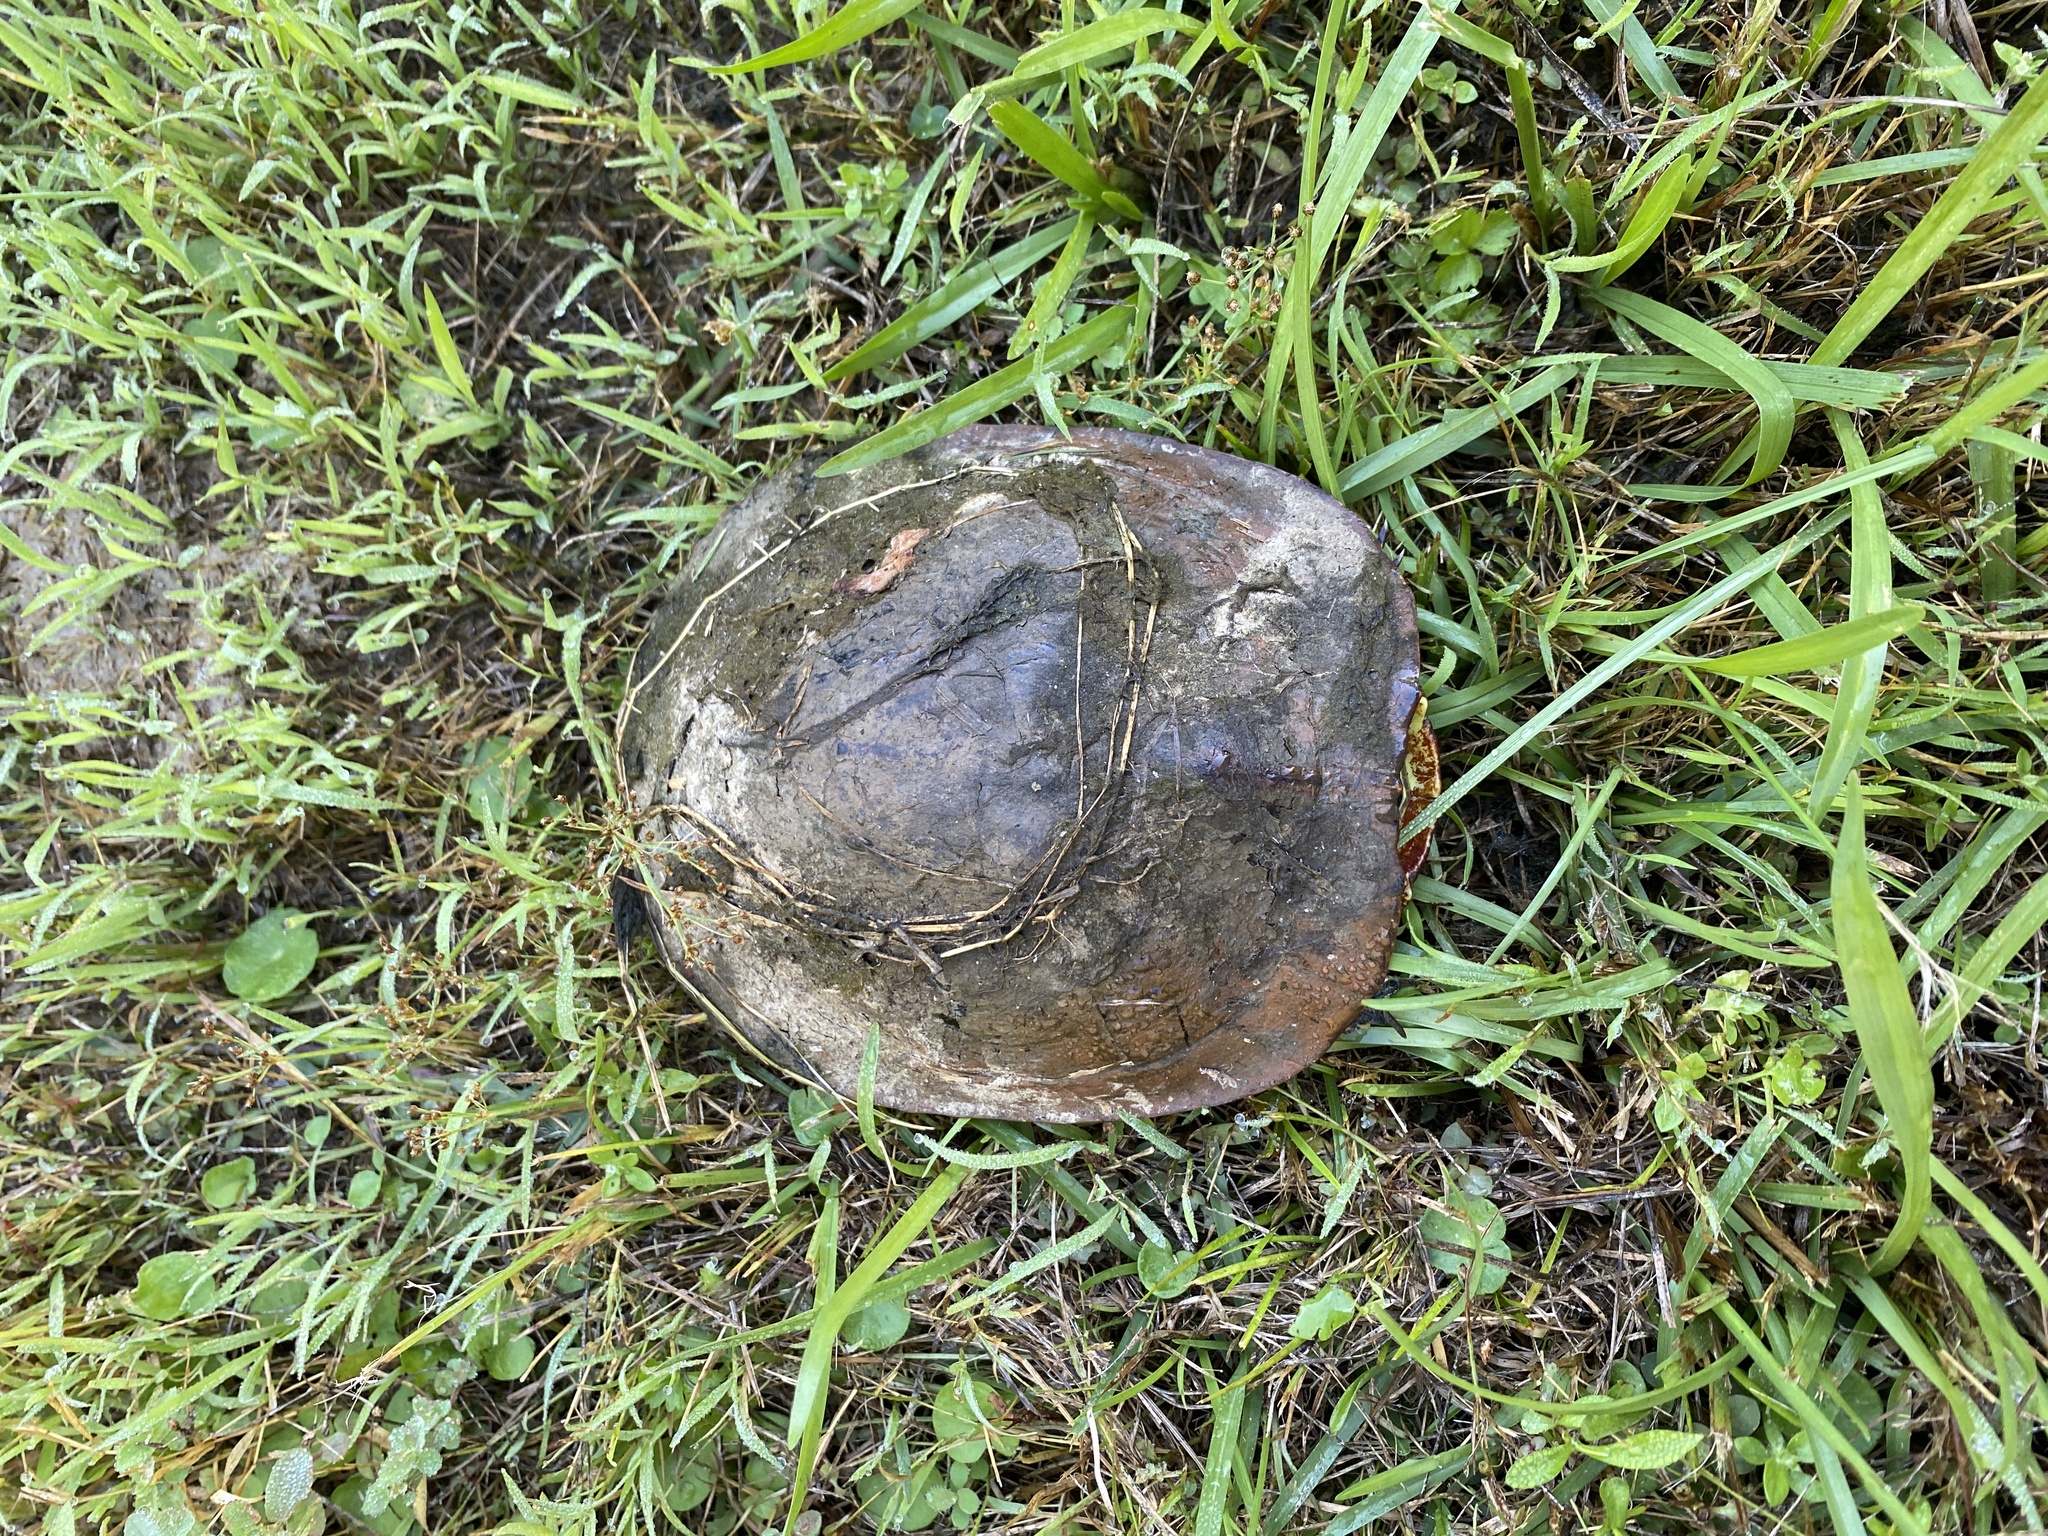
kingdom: Animalia
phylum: Chordata
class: Testudines
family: Emydidae
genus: Trachemys
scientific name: Trachemys scripta
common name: Slider
